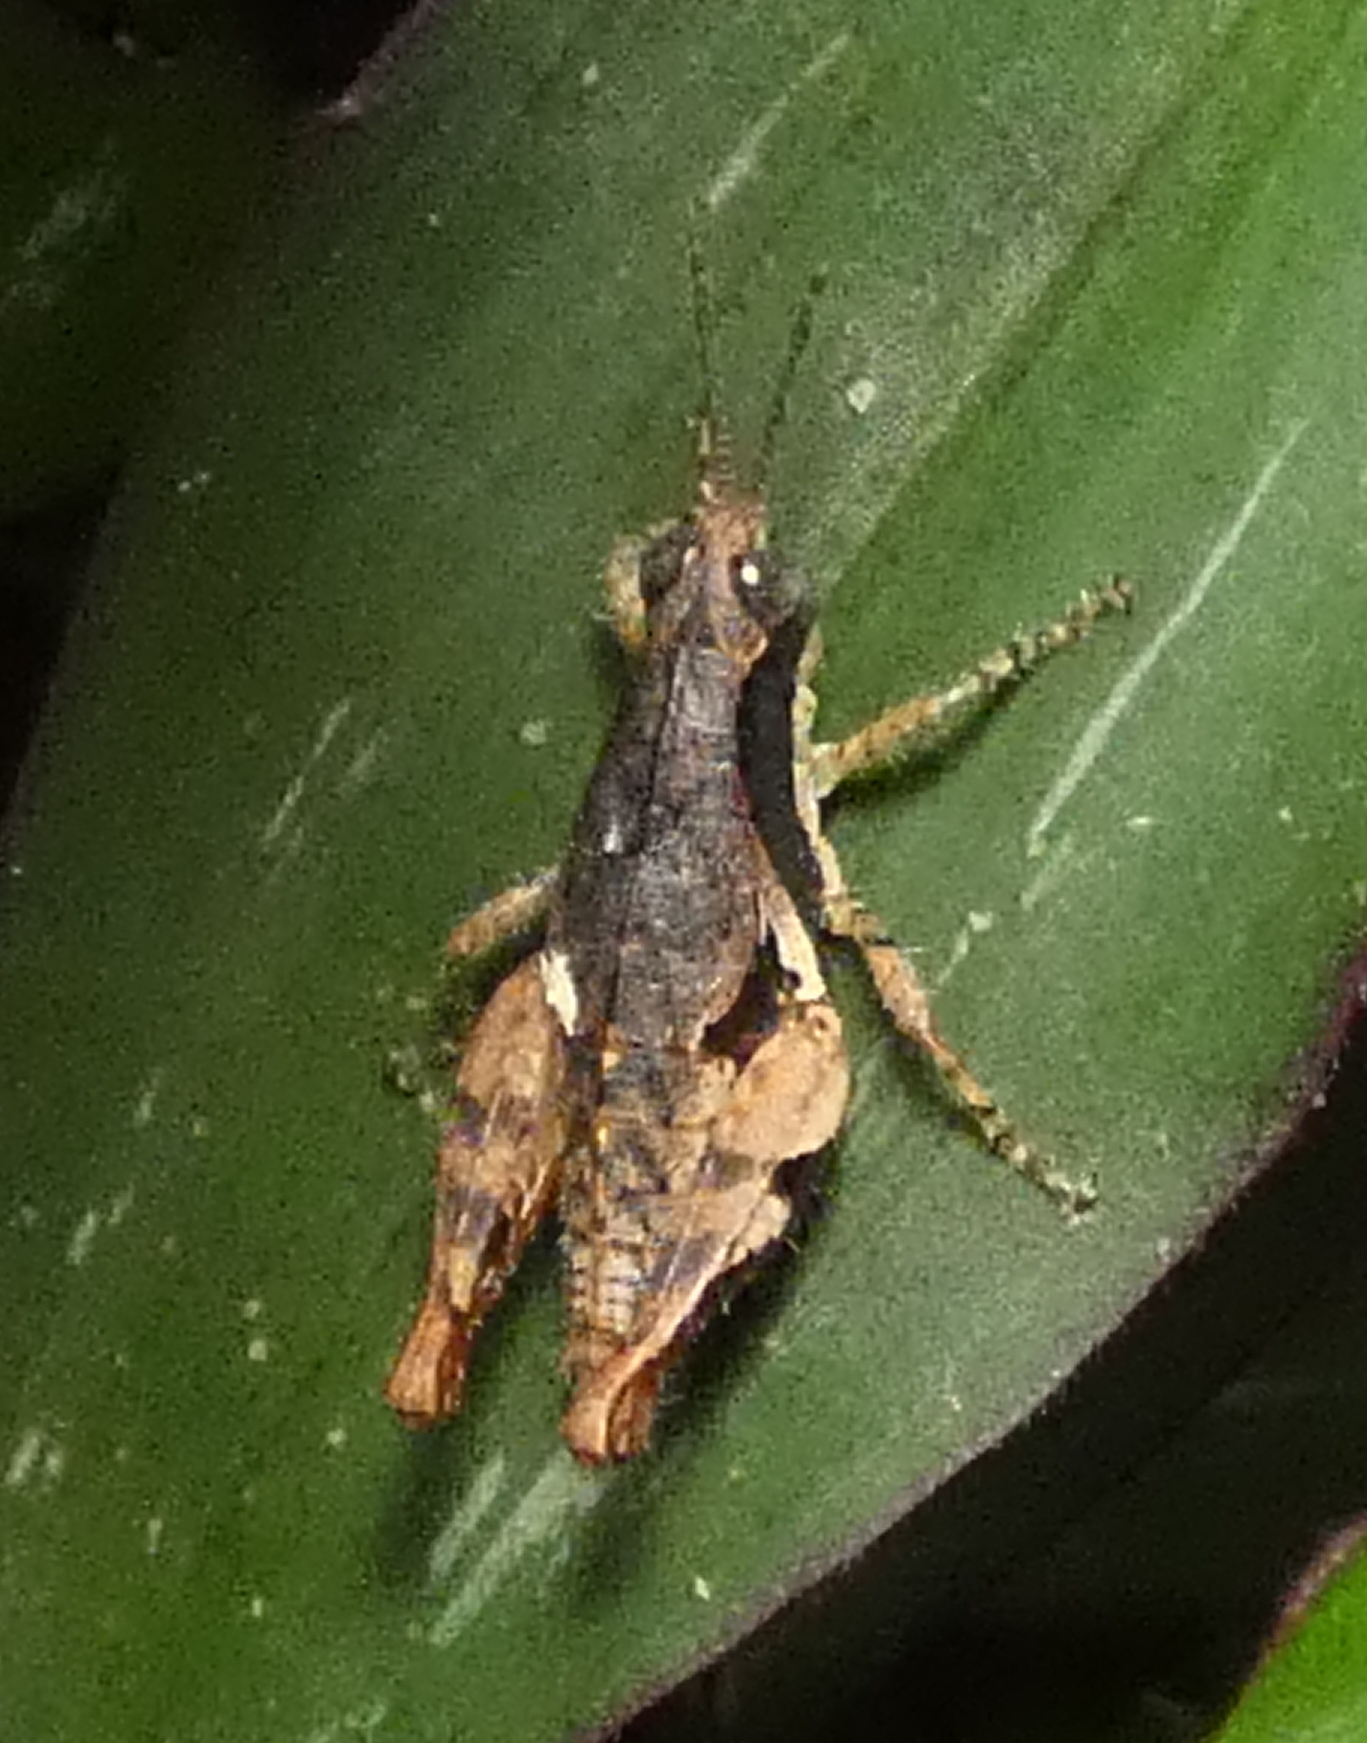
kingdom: Animalia
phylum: Arthropoda
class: Insecta
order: Orthoptera
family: Acrididae
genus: Eujivarus
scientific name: Eujivarus meridionalis
